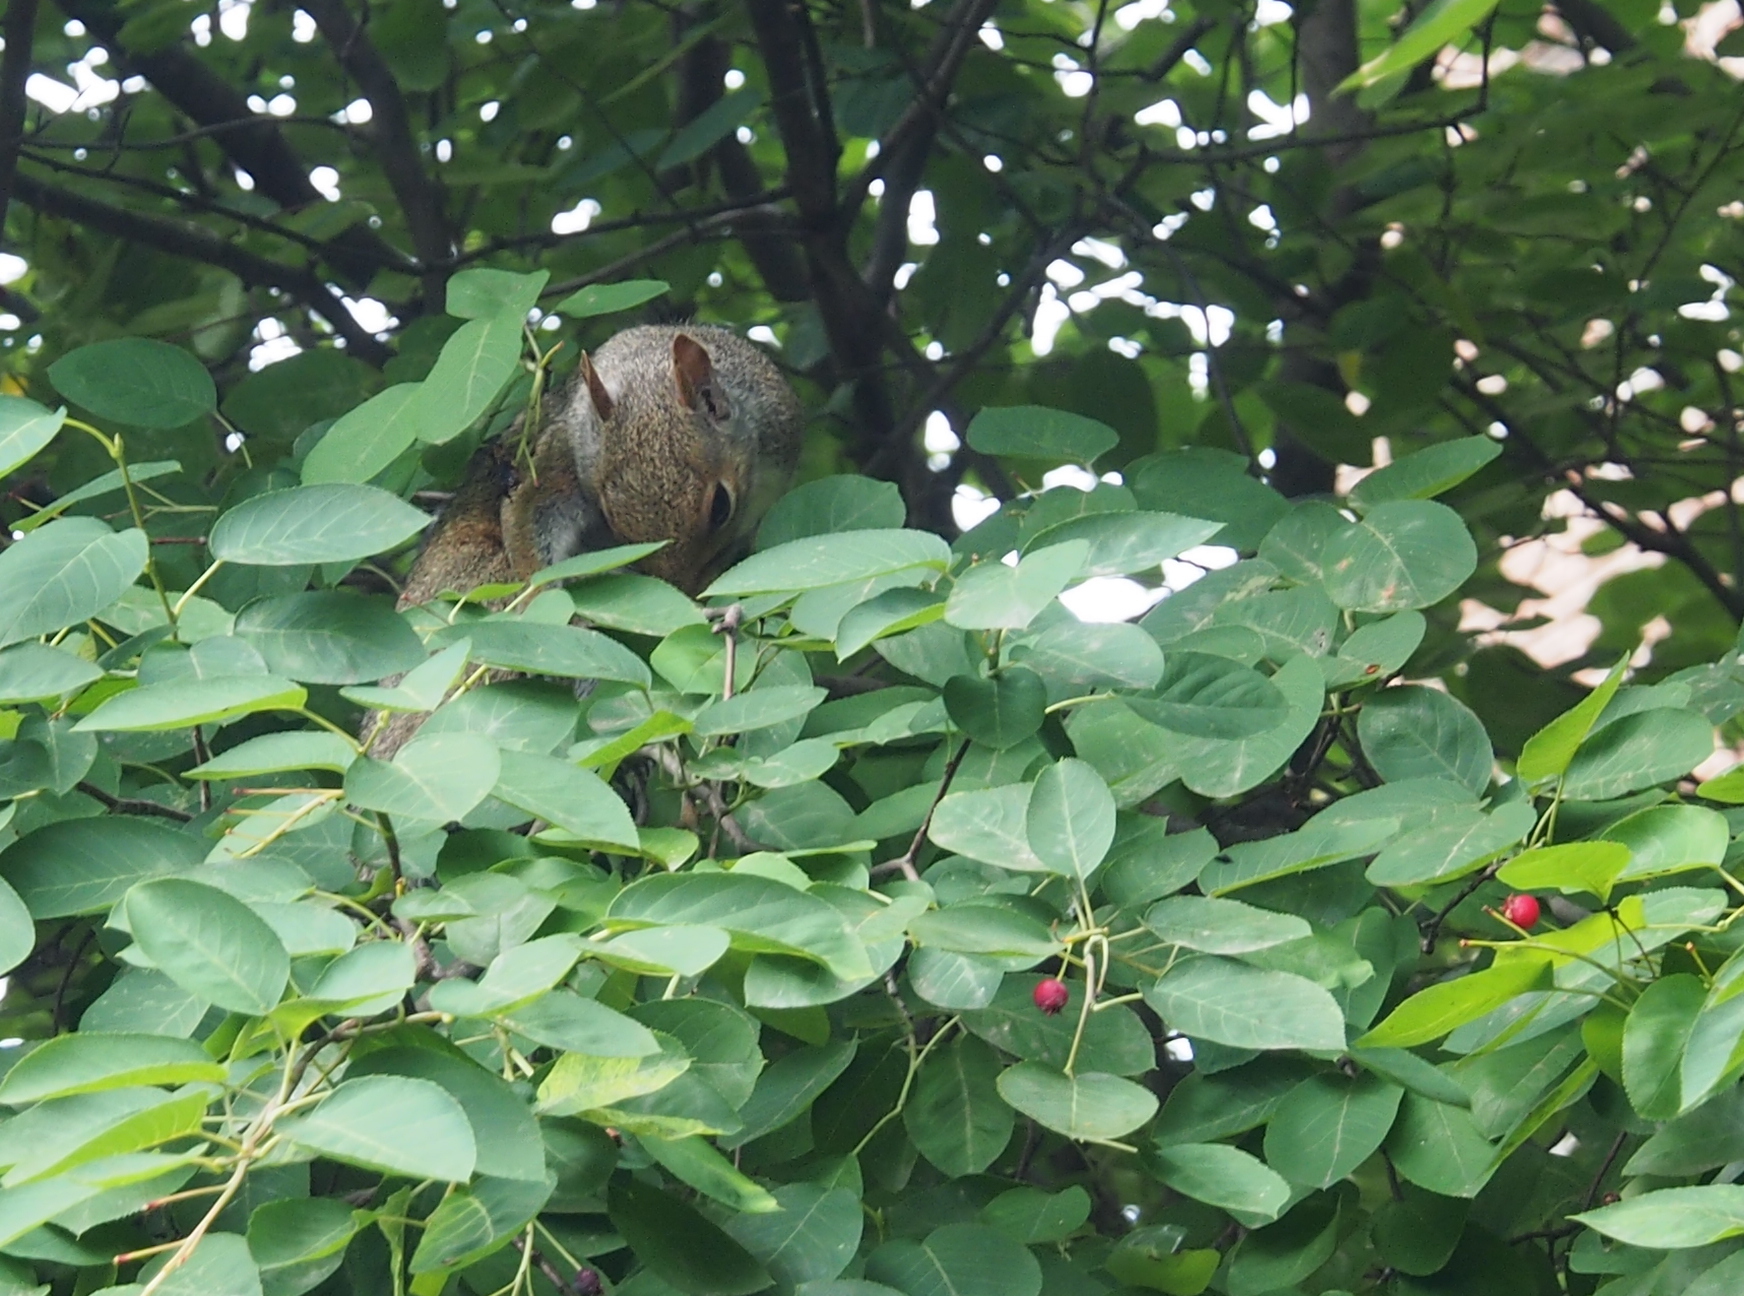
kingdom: Animalia
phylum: Chordata
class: Mammalia
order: Rodentia
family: Sciuridae
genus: Sciurus
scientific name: Sciurus carolinensis
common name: Eastern gray squirrel
